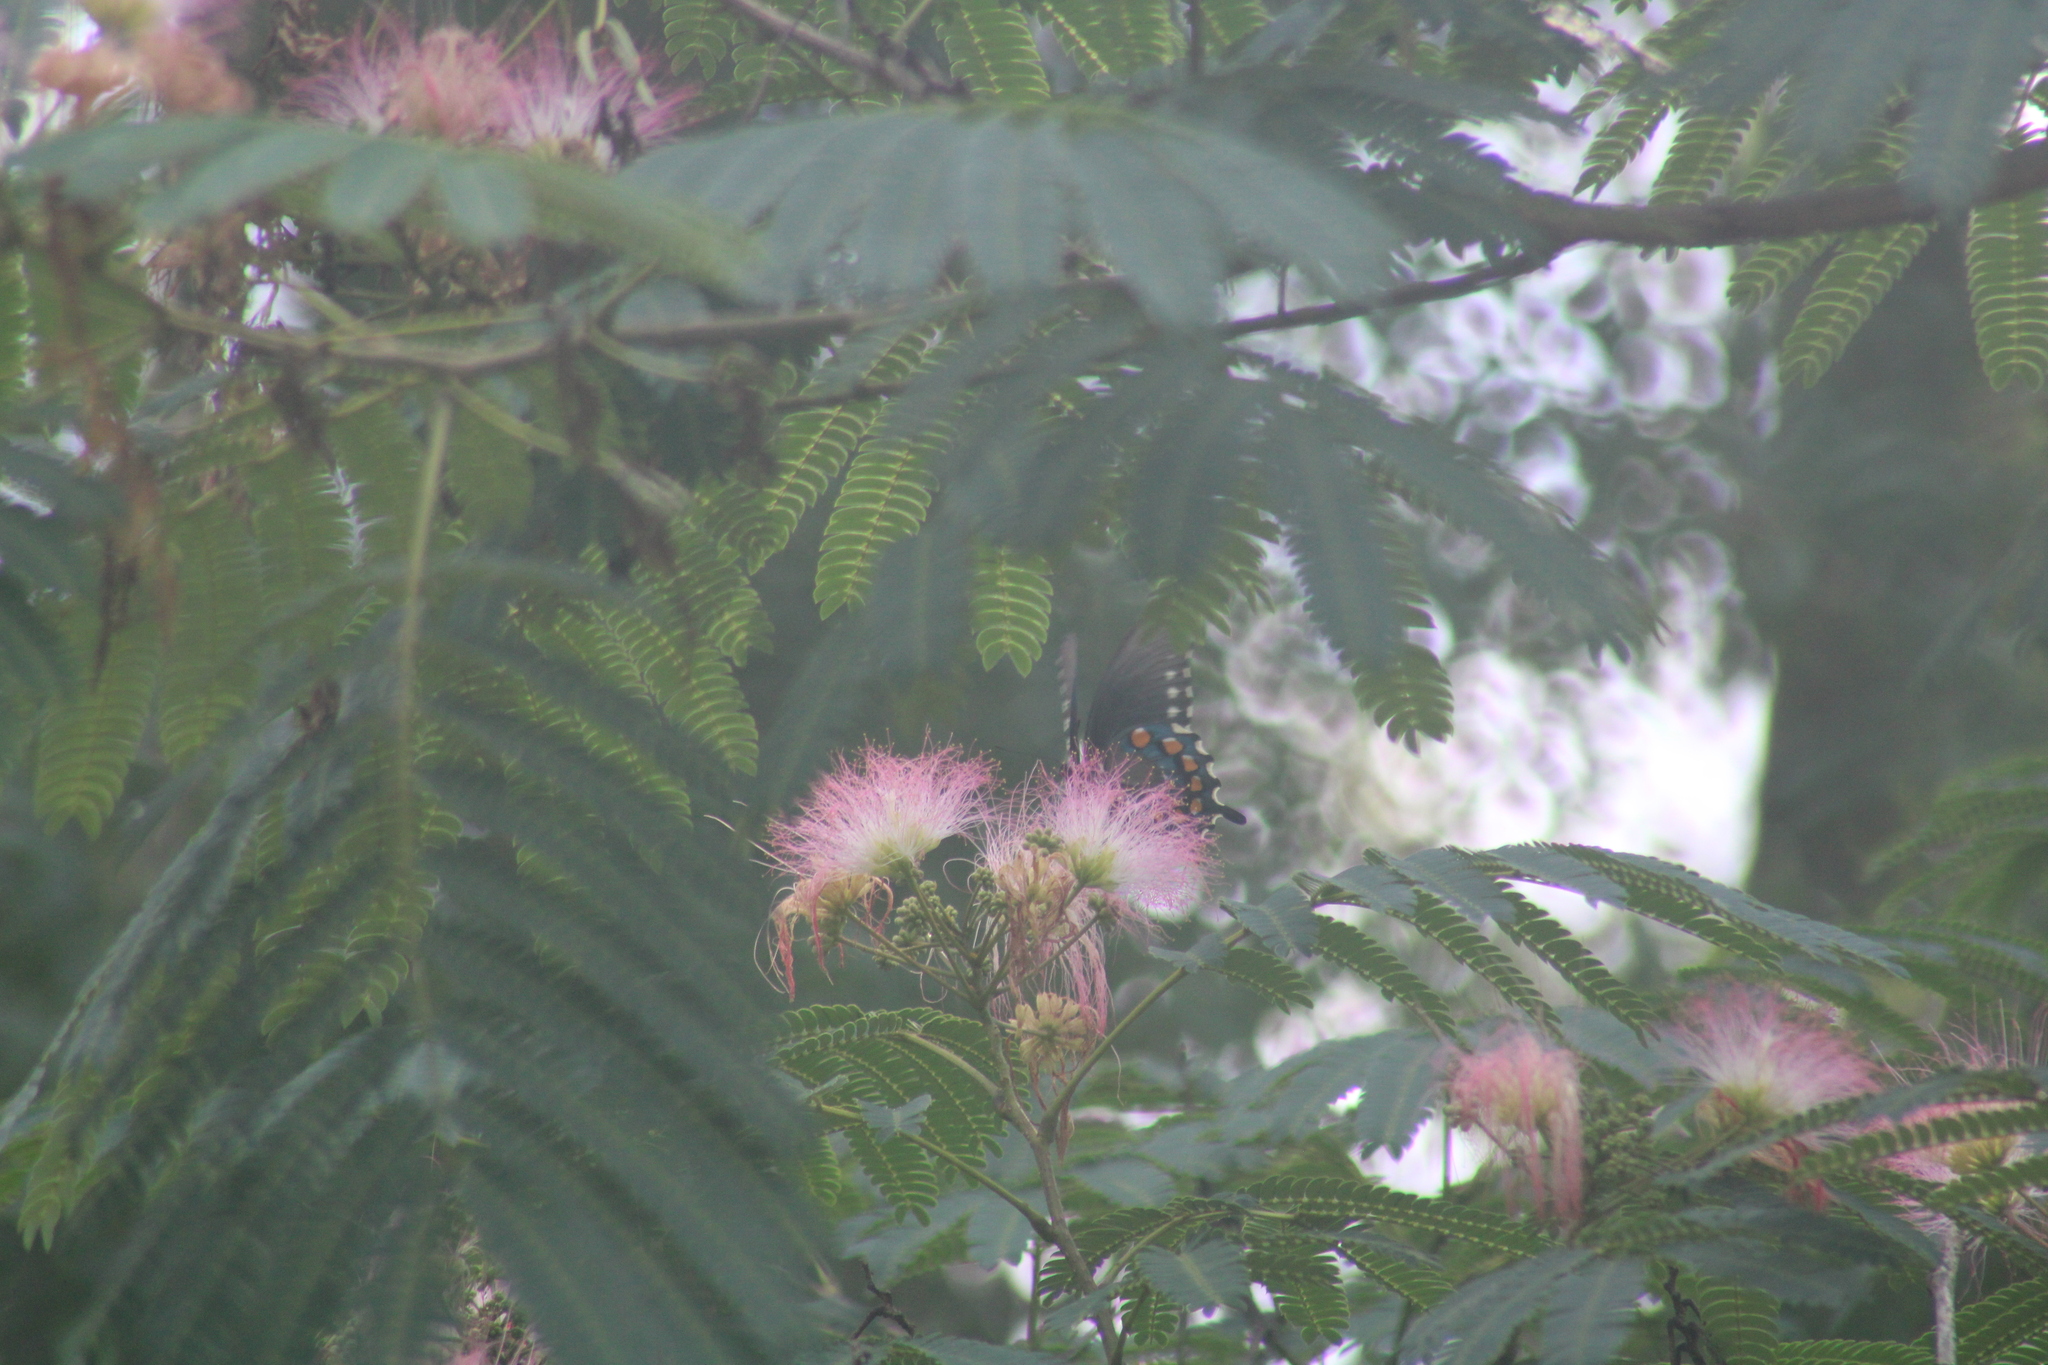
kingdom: Animalia
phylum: Arthropoda
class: Insecta
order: Lepidoptera
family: Papilionidae
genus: Battus
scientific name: Battus philenor
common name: Pipevine swallowtail
